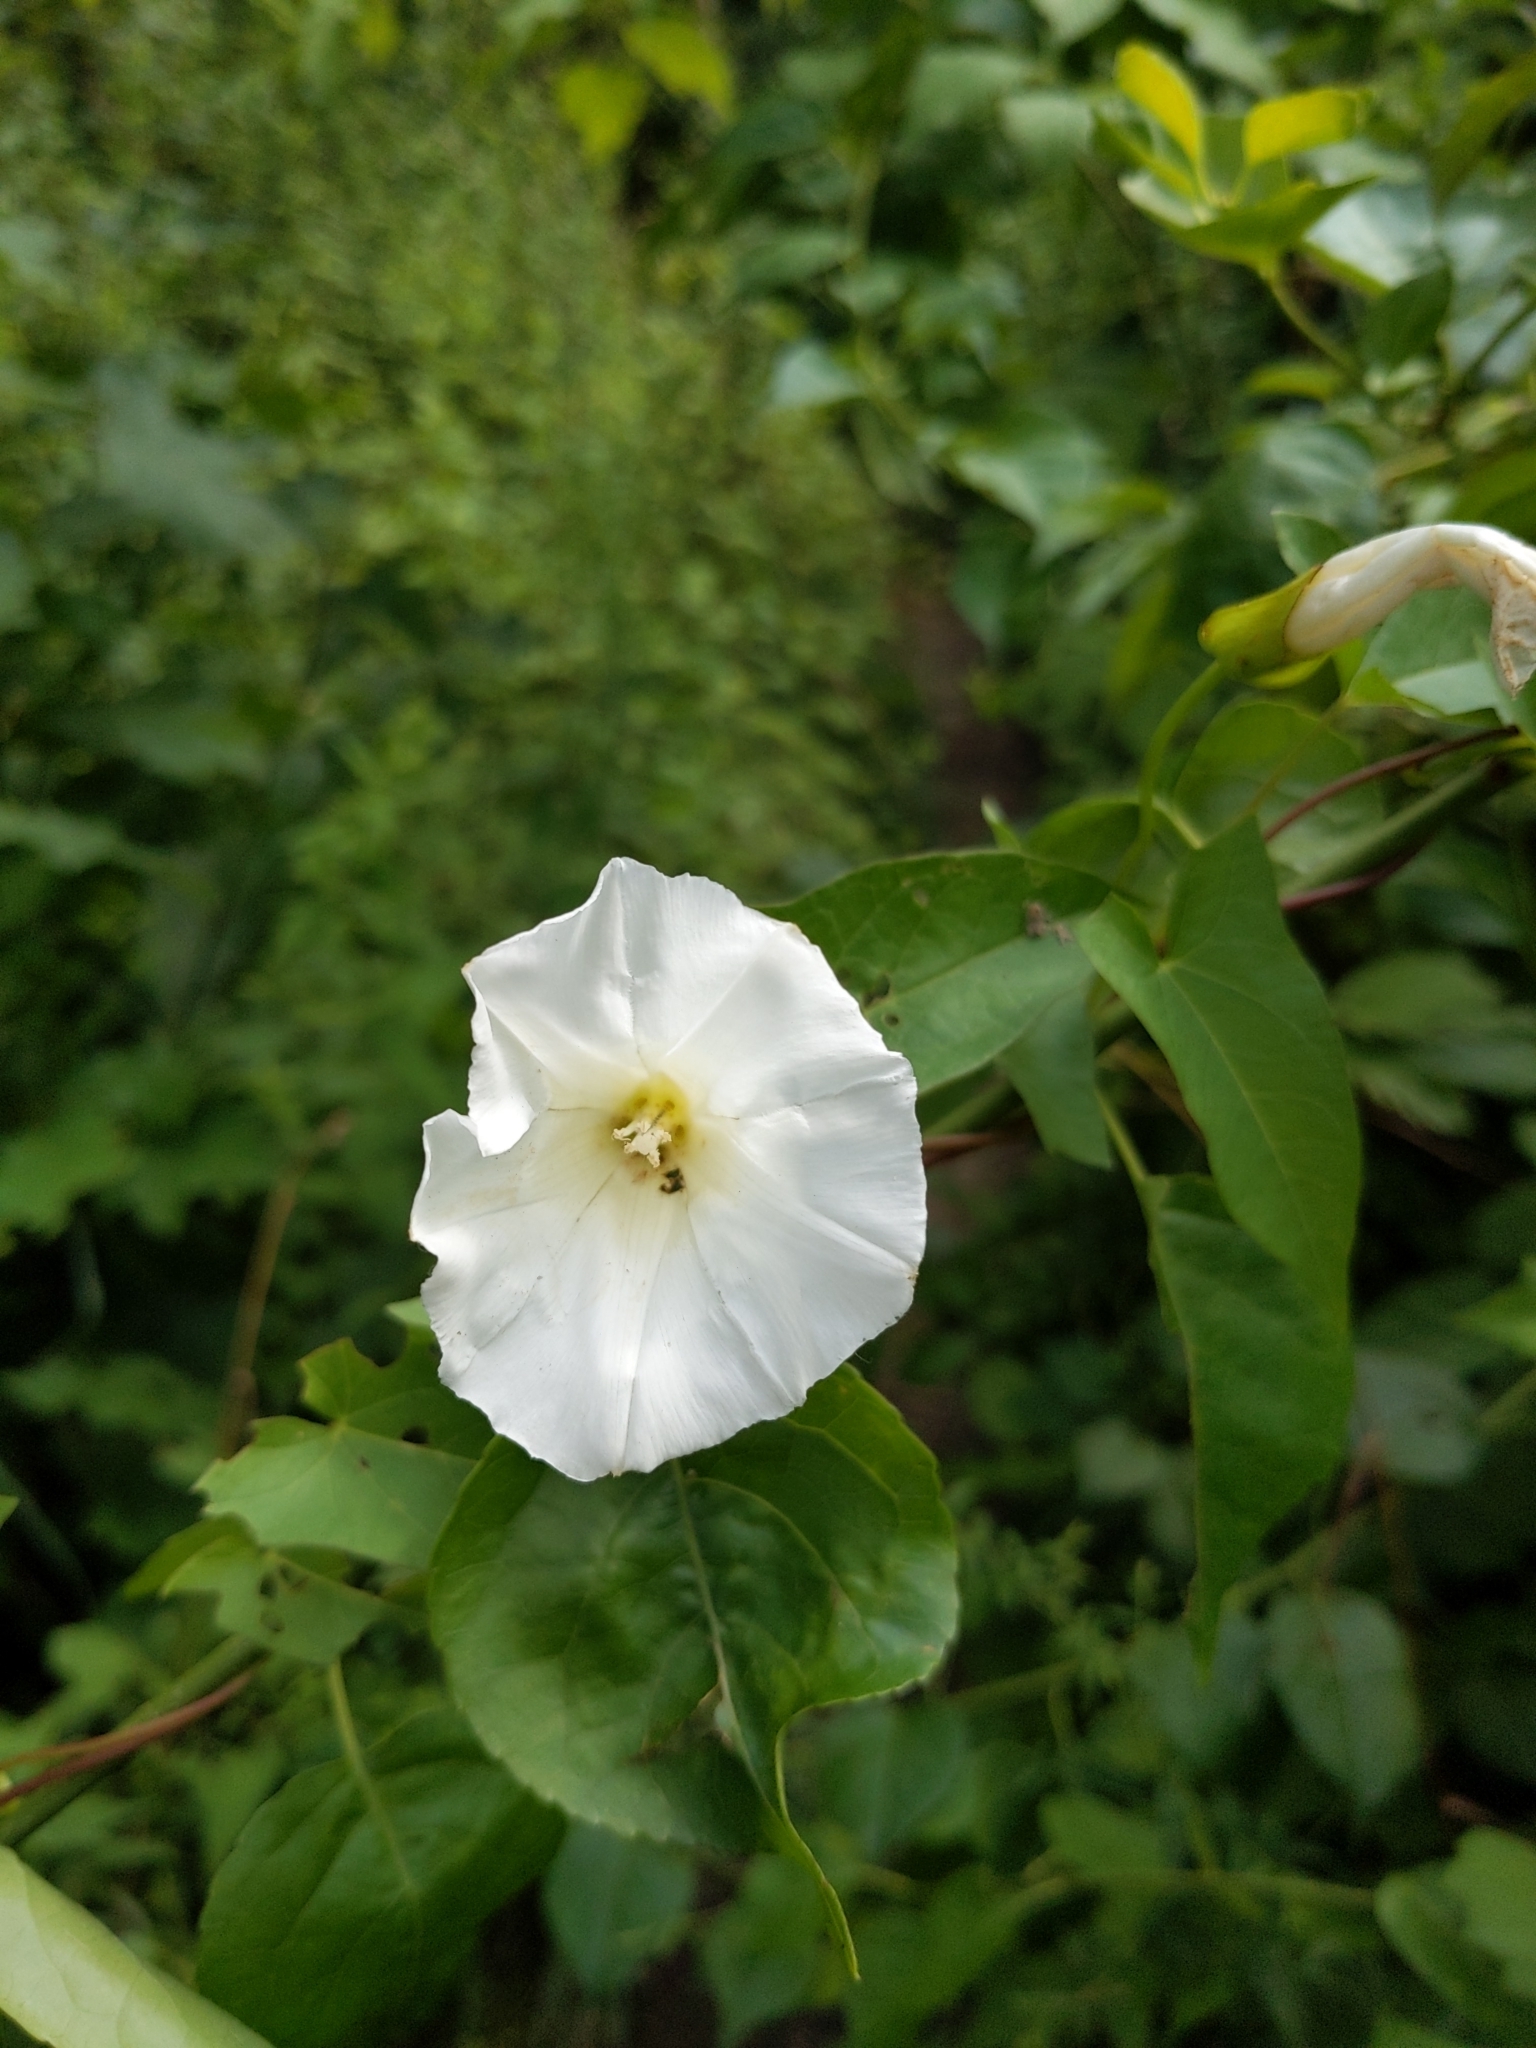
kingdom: Plantae
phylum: Tracheophyta
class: Magnoliopsida
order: Solanales
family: Convolvulaceae
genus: Calystegia
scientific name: Calystegia sepium
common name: Hedge bindweed
